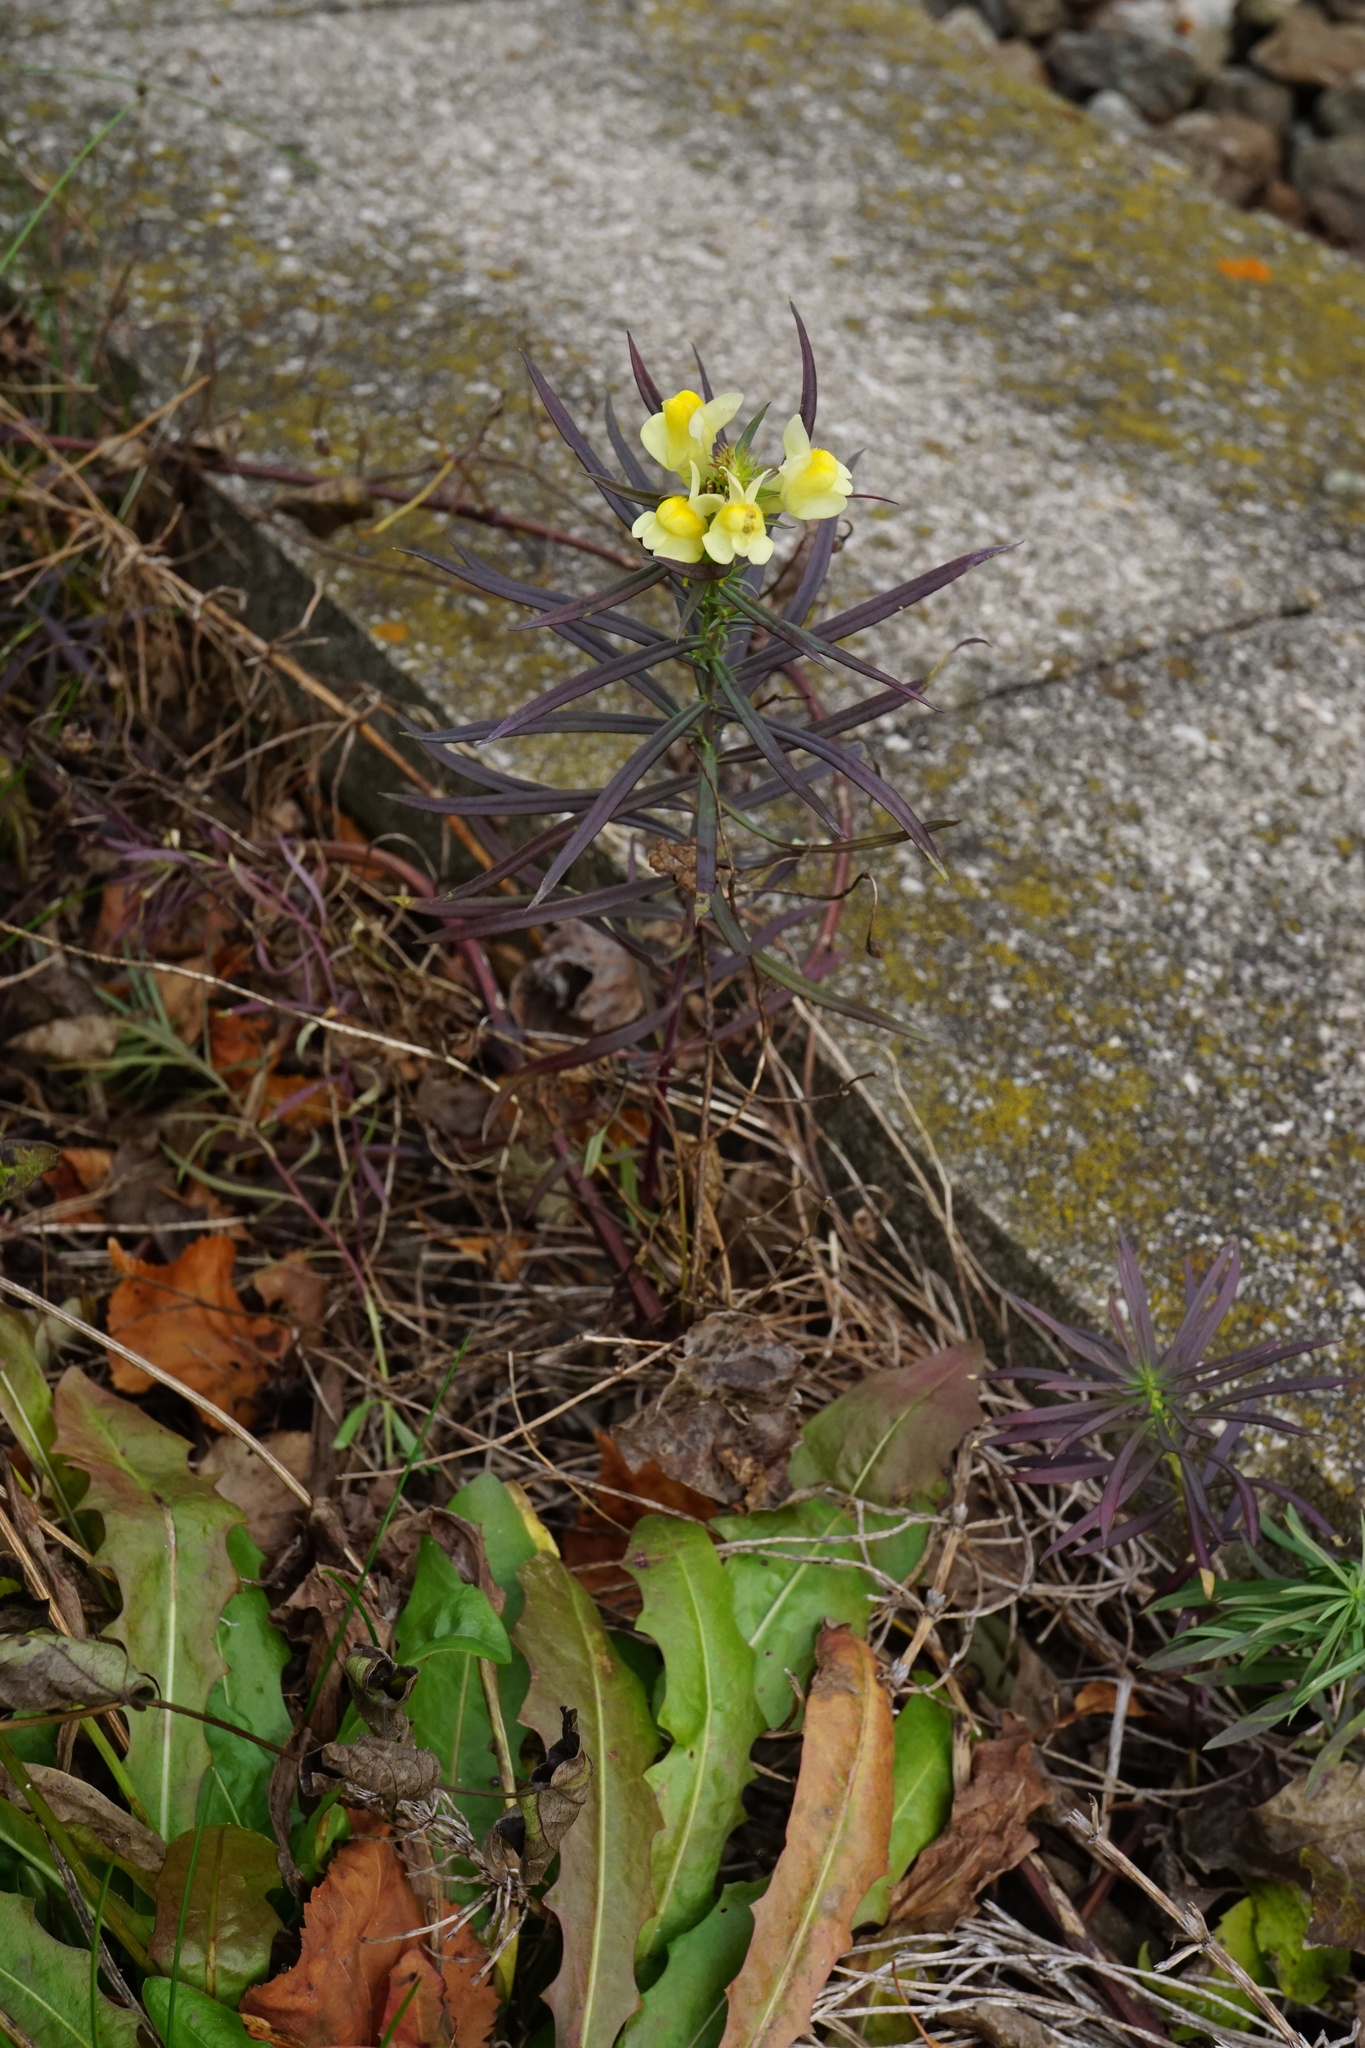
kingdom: Plantae
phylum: Tracheophyta
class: Magnoliopsida
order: Lamiales
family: Plantaginaceae
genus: Linaria
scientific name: Linaria vulgaris
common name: Butter and eggs
